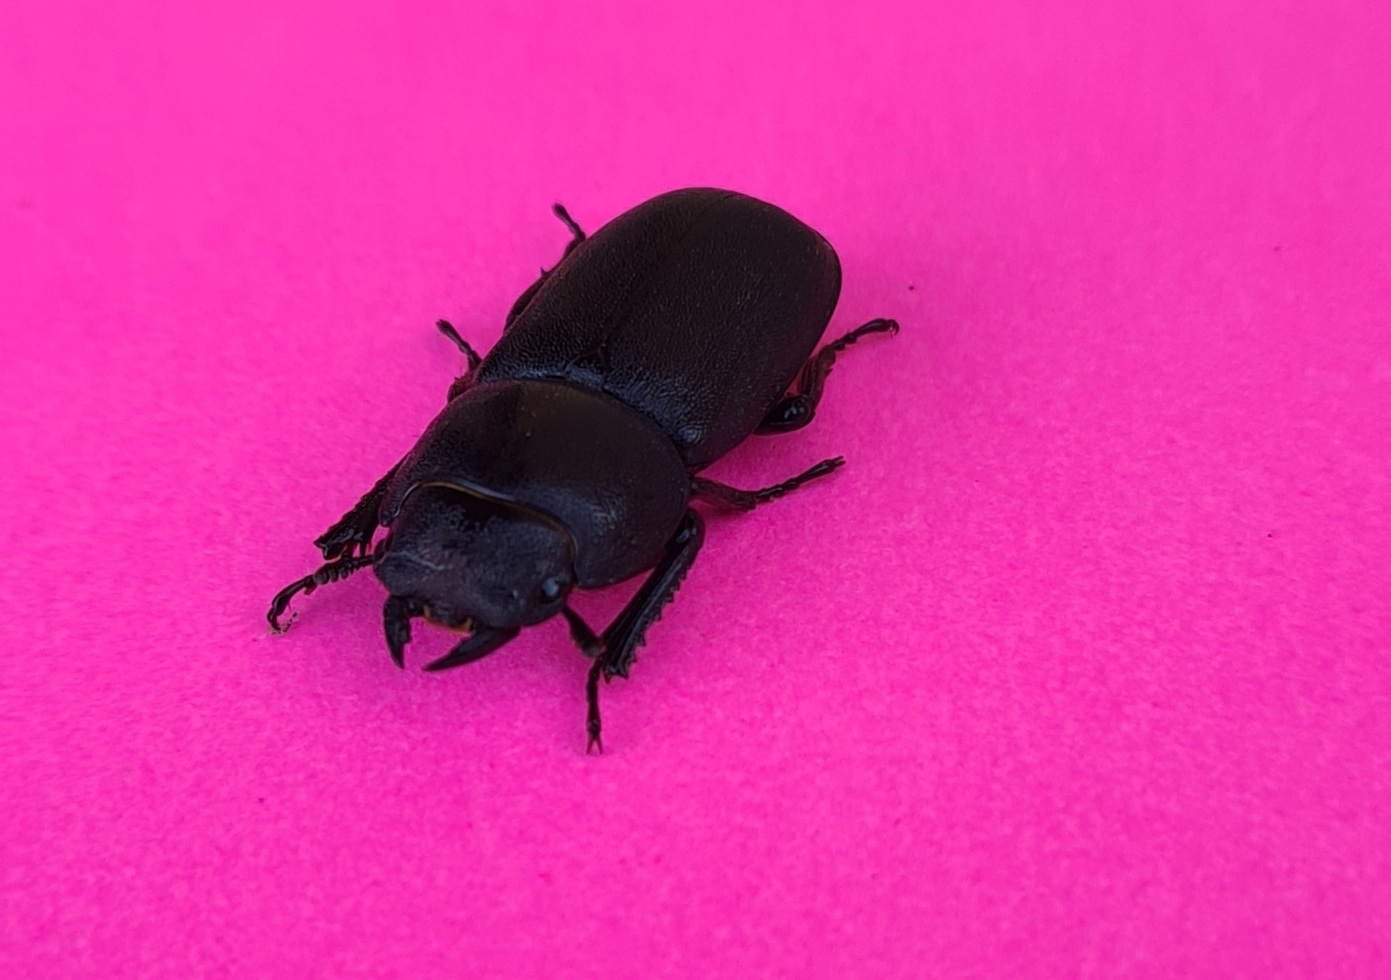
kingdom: Animalia
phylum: Arthropoda
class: Insecta
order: Coleoptera
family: Lucanidae
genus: Dorcus
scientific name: Dorcus parallelipipedus
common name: Lesser stag beetle
